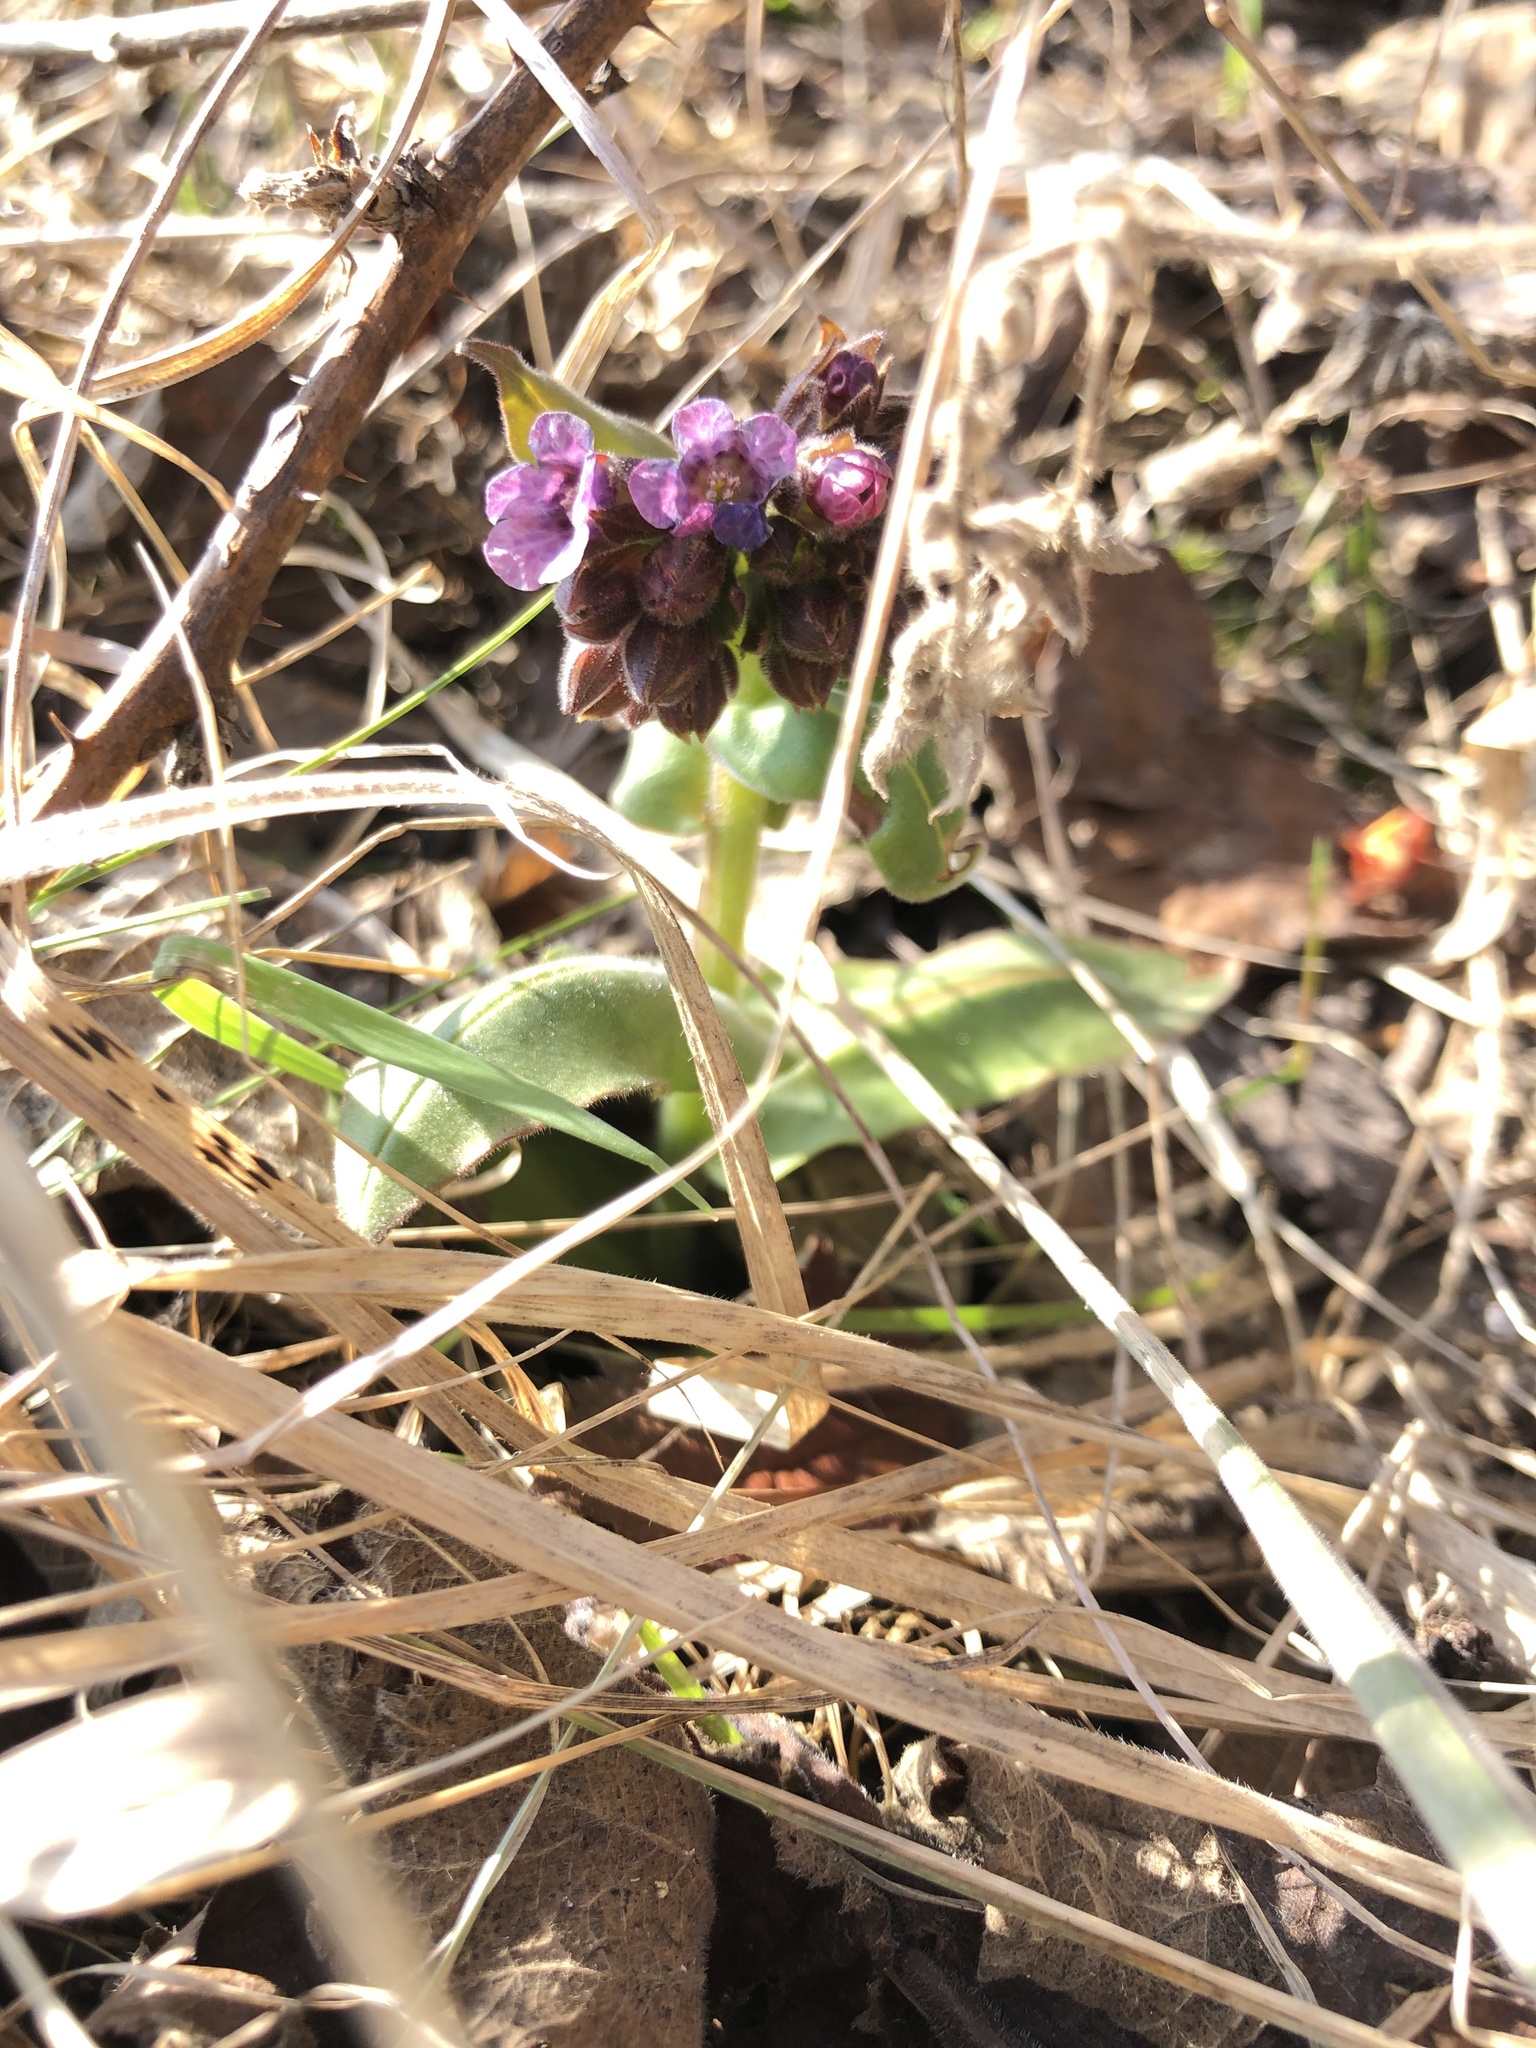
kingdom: Plantae
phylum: Tracheophyta
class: Magnoliopsida
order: Boraginales
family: Boraginaceae
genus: Pulmonaria
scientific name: Pulmonaria obscura
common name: Suffolk lungwort
